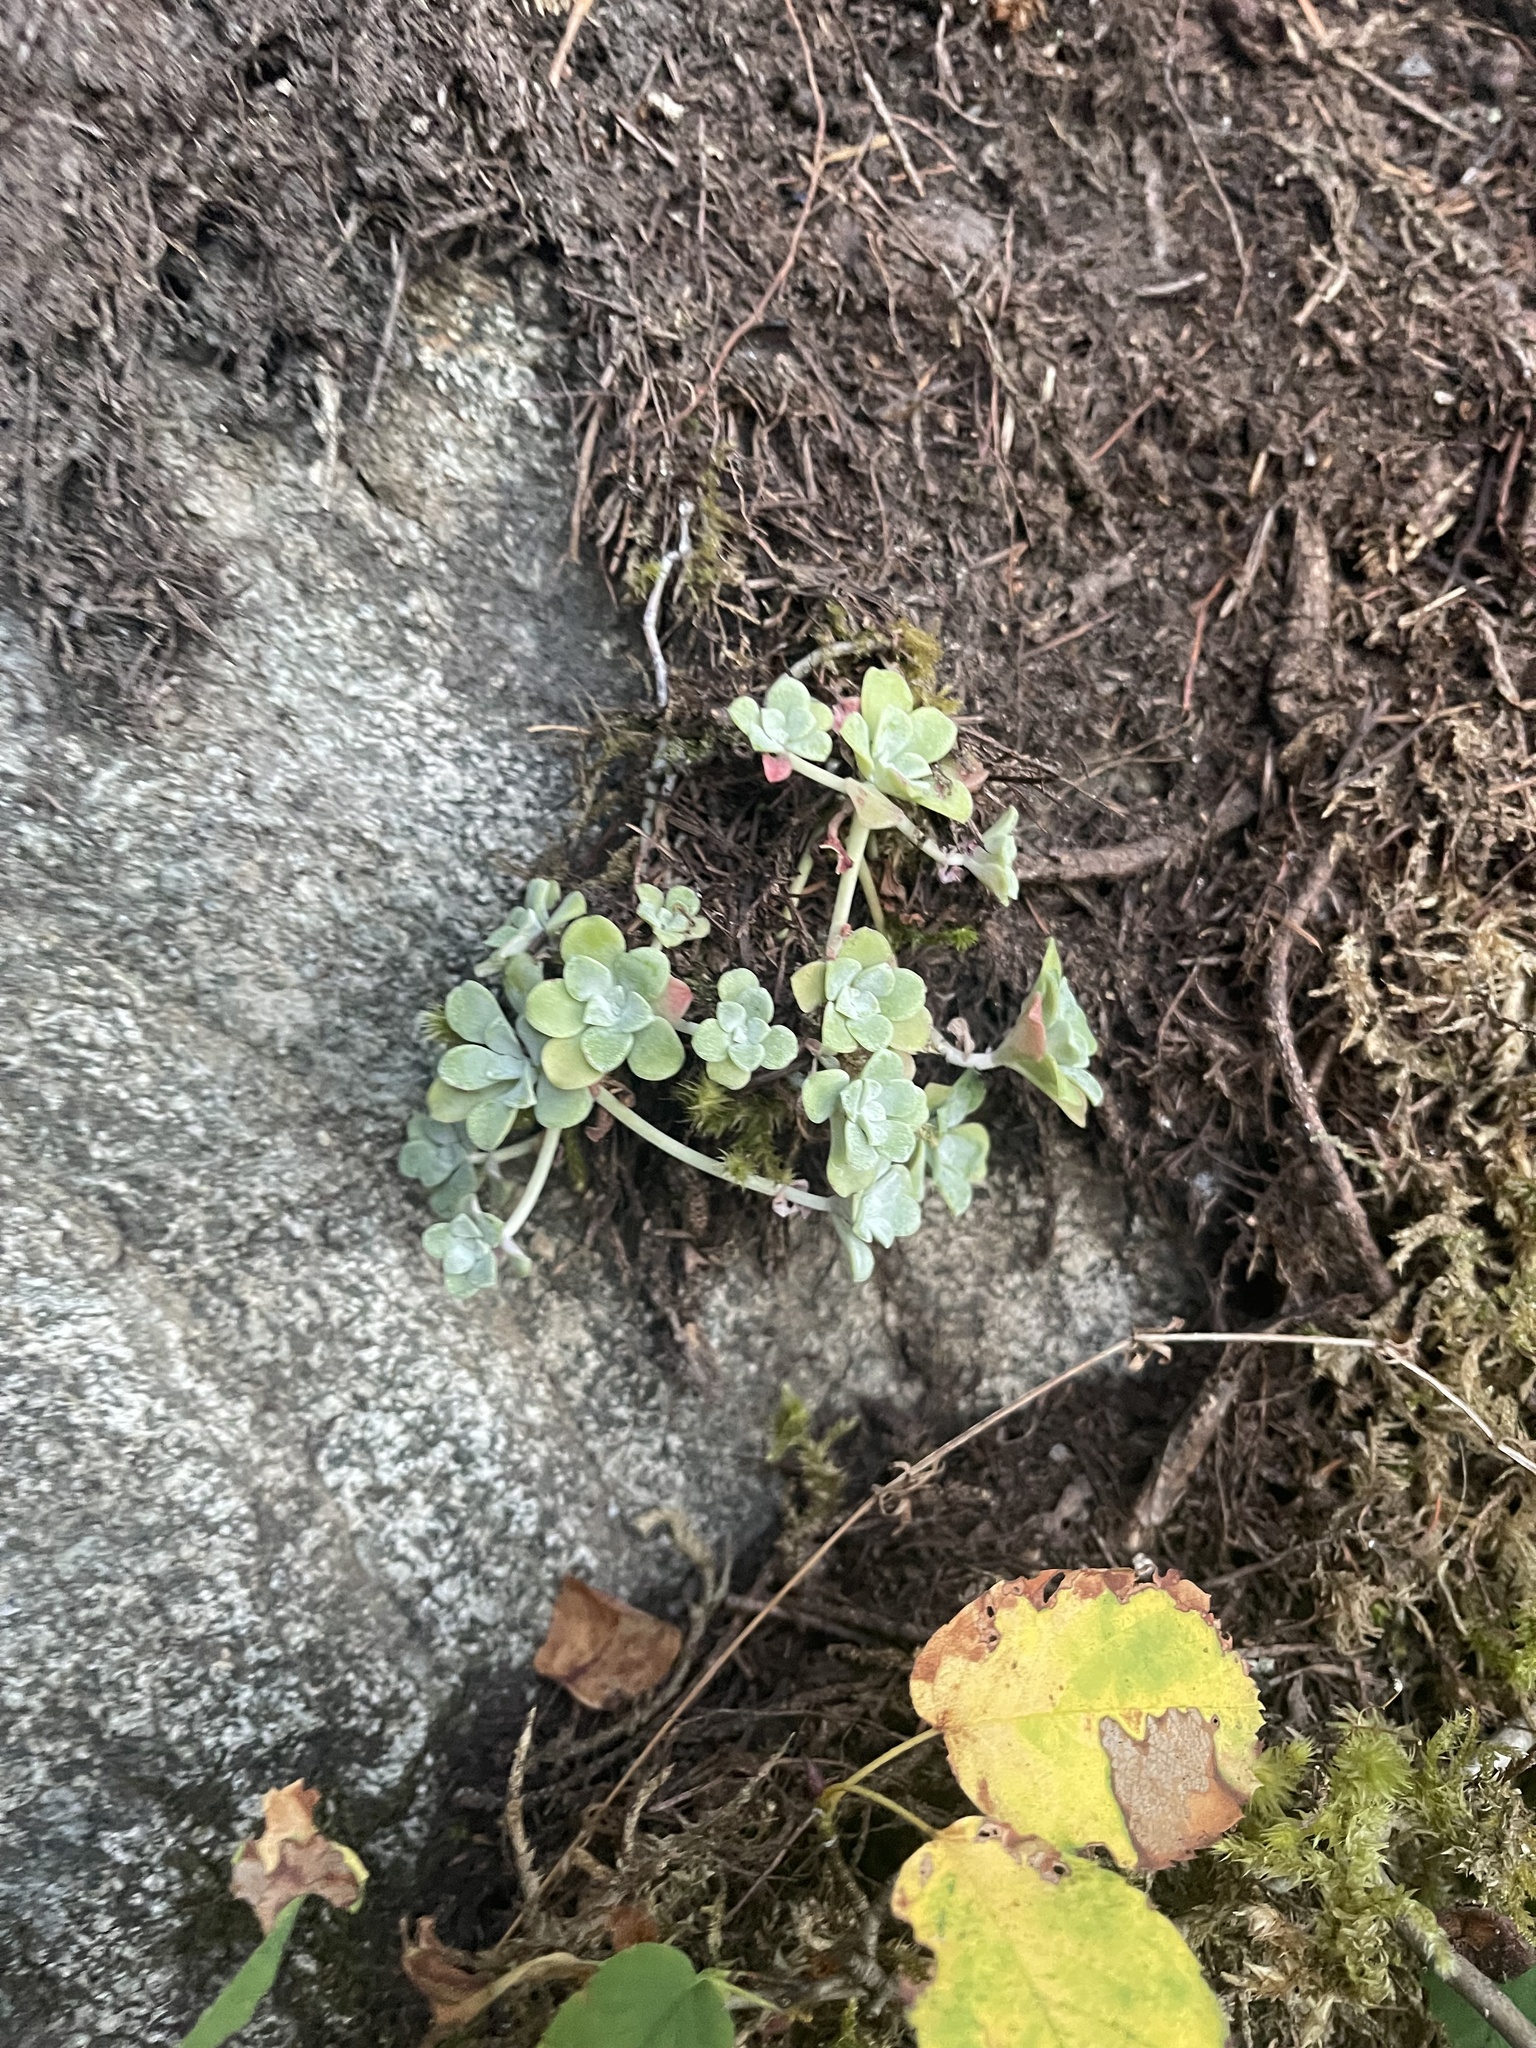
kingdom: Plantae
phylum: Tracheophyta
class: Magnoliopsida
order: Saxifragales
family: Crassulaceae
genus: Sedum
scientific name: Sedum spathulifolium
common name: Colorado stonecrop
